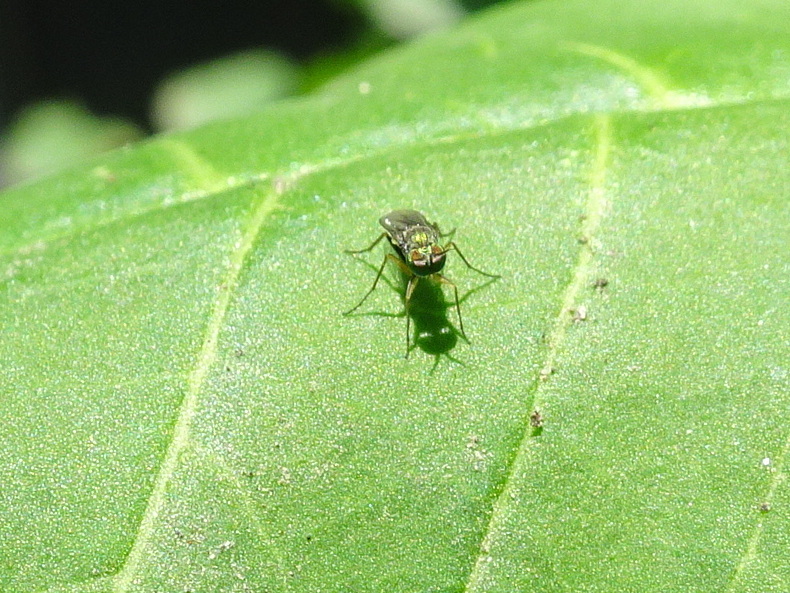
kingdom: Animalia
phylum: Arthropoda
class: Insecta
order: Diptera
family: Dolichopodidae
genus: Achradocera
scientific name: Achradocera barbata
